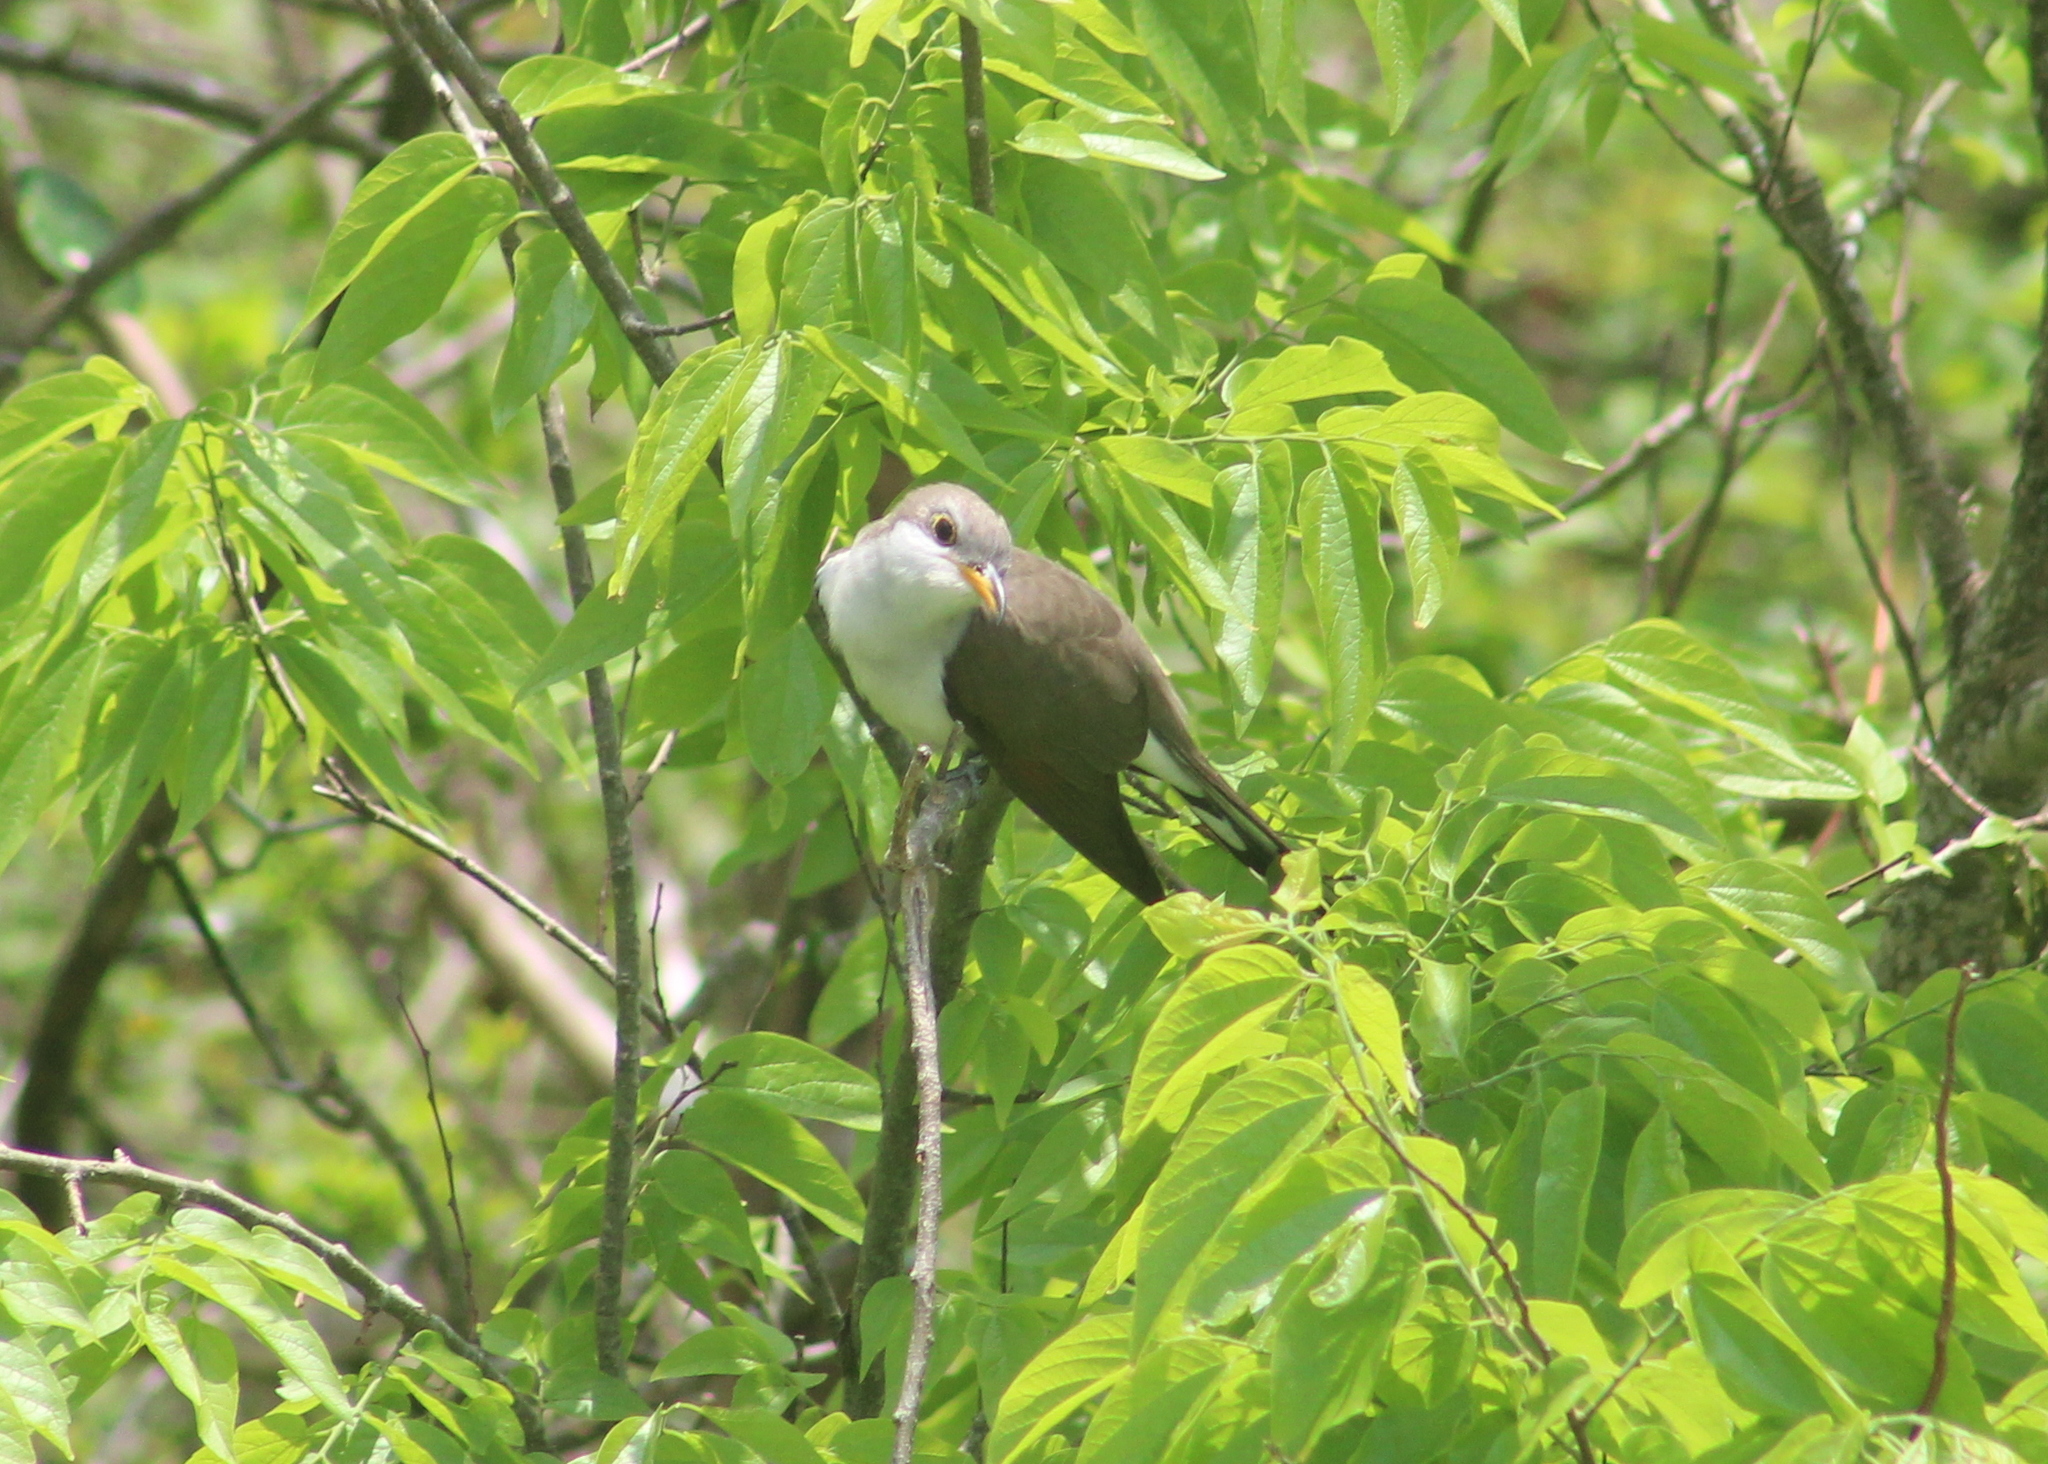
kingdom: Animalia
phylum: Chordata
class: Aves
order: Cuculiformes
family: Cuculidae
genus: Coccyzus
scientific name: Coccyzus americanus
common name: Yellow-billed cuckoo
